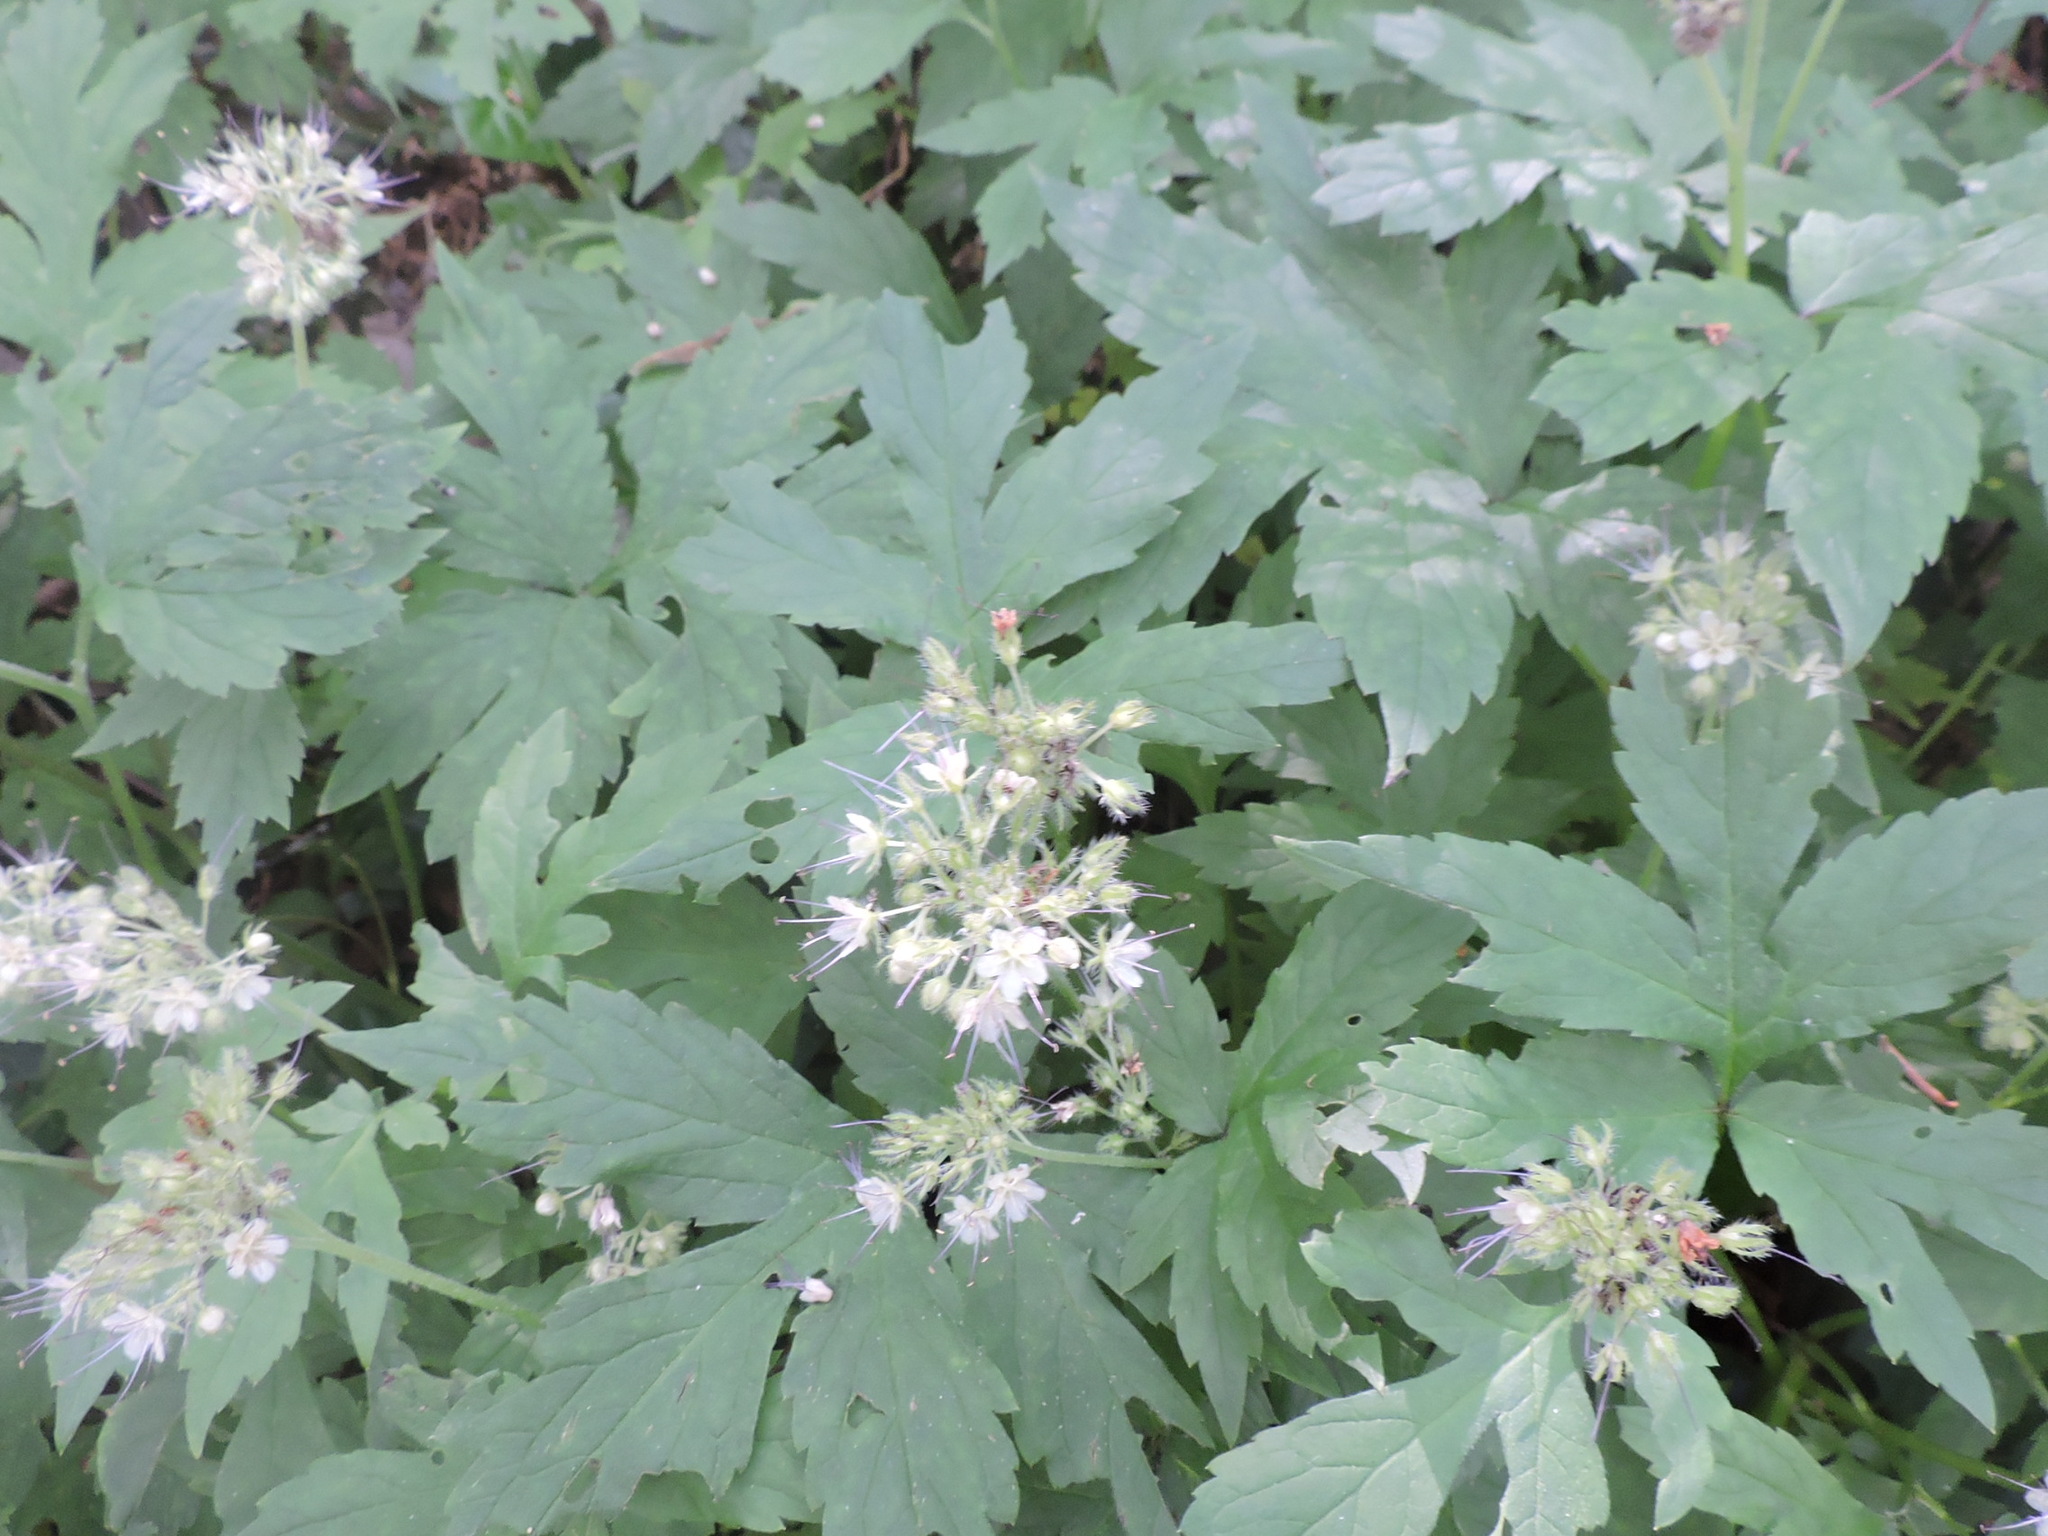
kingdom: Plantae
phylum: Tracheophyta
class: Magnoliopsida
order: Boraginales
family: Hydrophyllaceae
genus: Hydrophyllum
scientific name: Hydrophyllum tenuipes
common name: Pacific waterleaf
